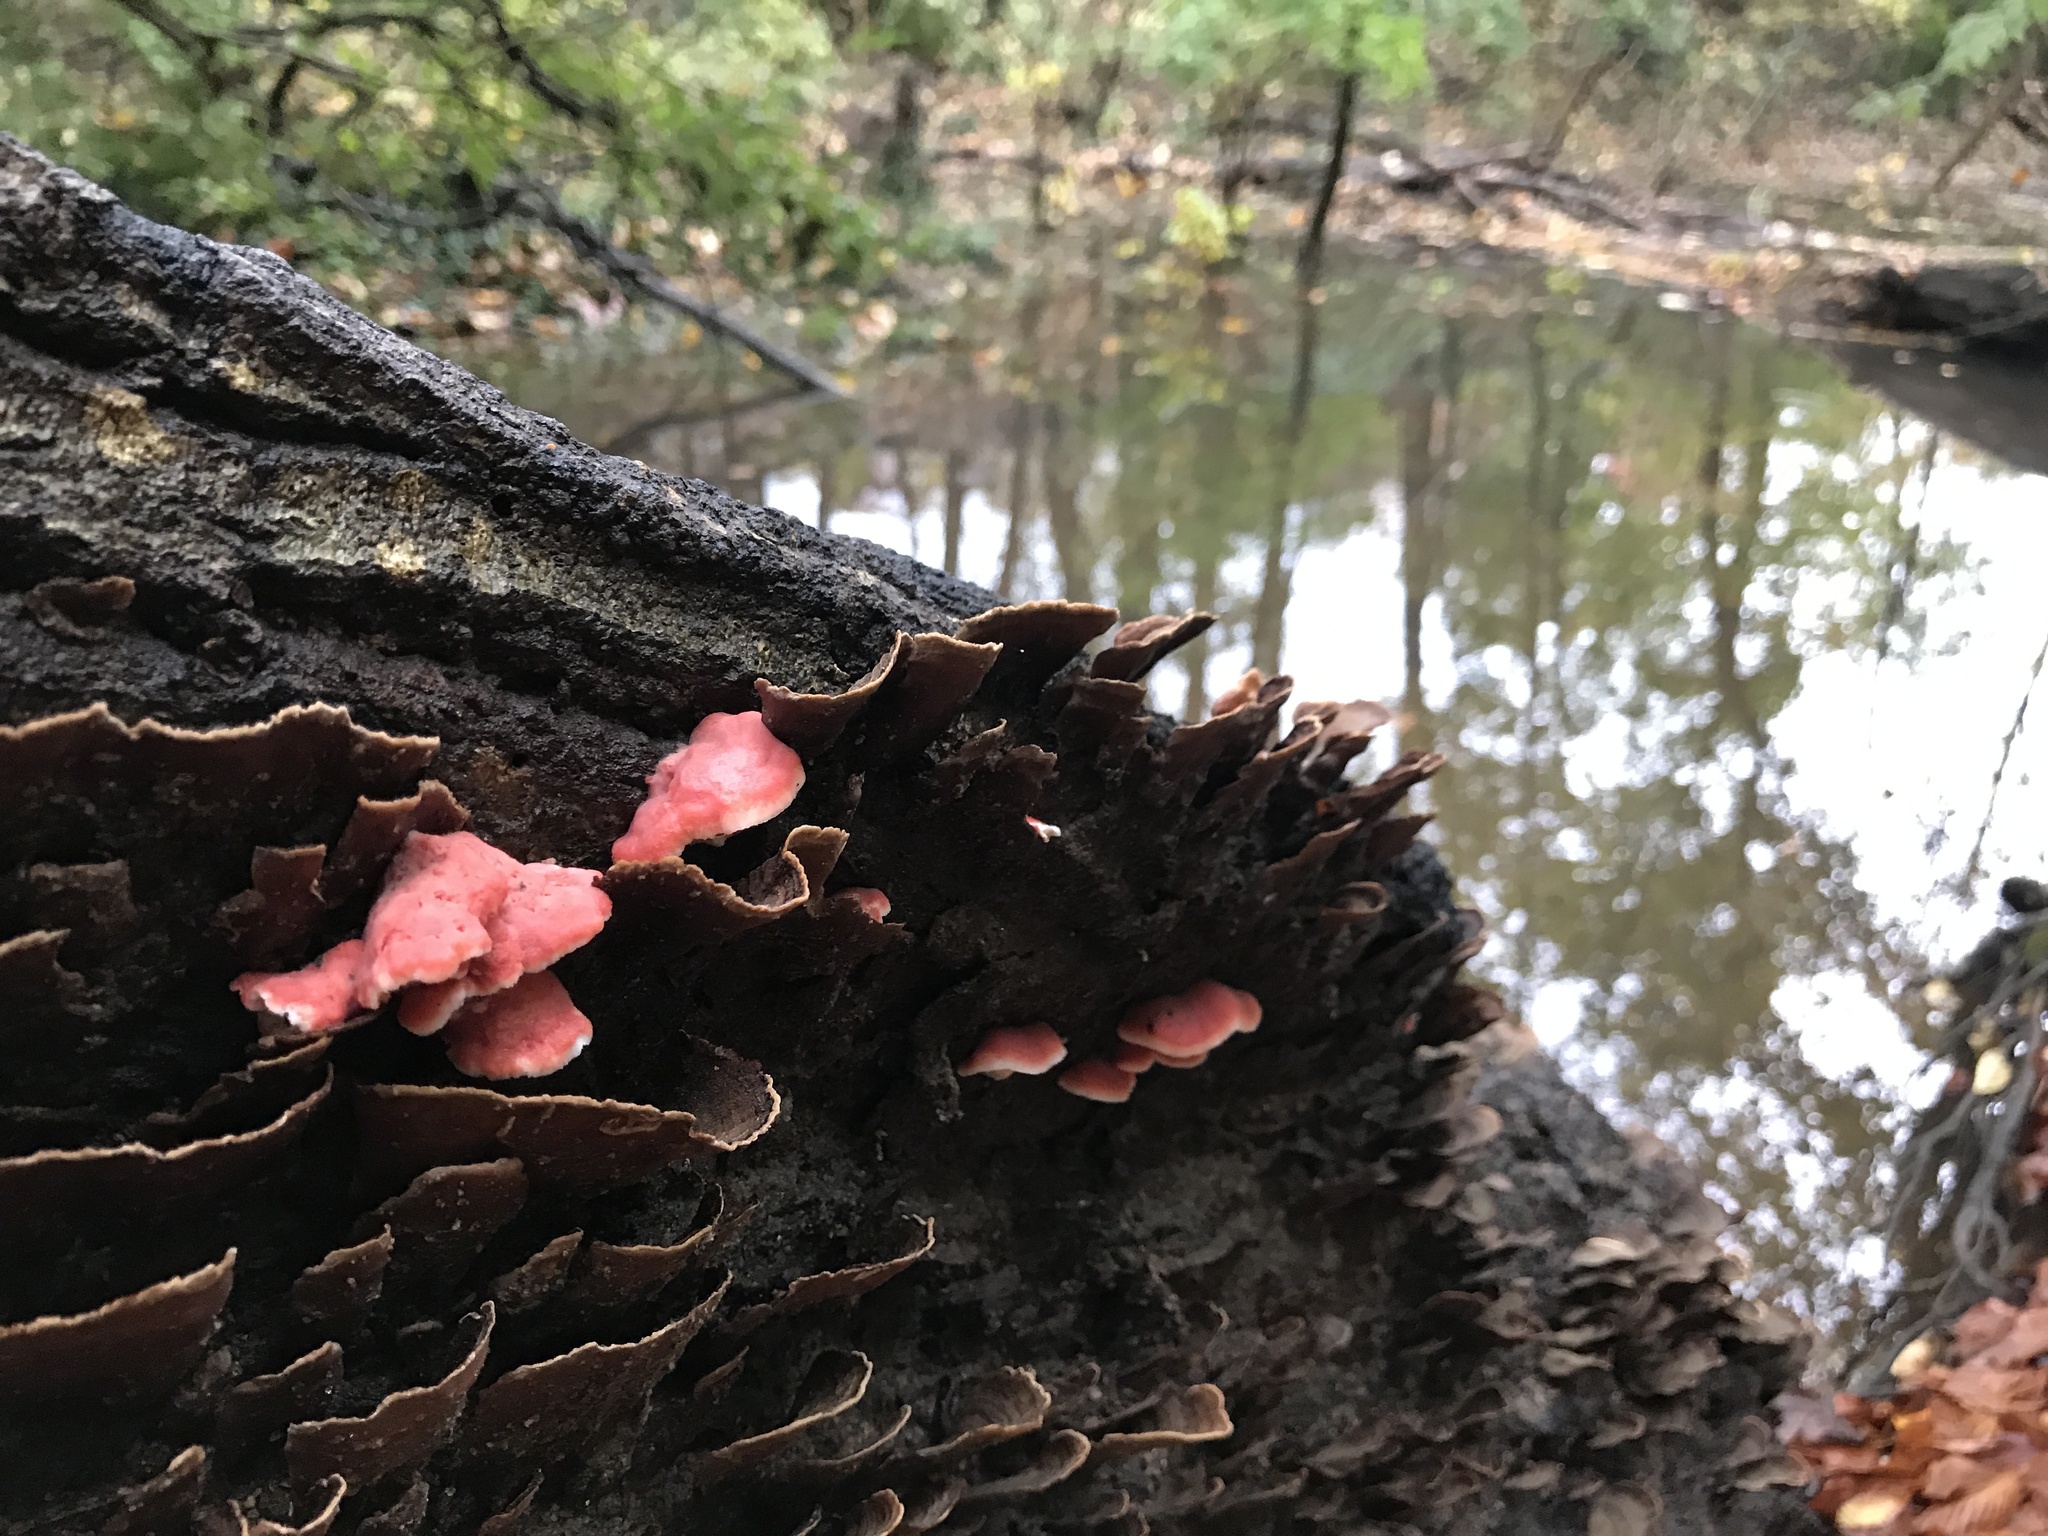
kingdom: Fungi
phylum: Basidiomycota
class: Agaricomycetes
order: Polyporales
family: Irpicaceae
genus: Byssomerulius
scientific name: Byssomerulius incarnatus
